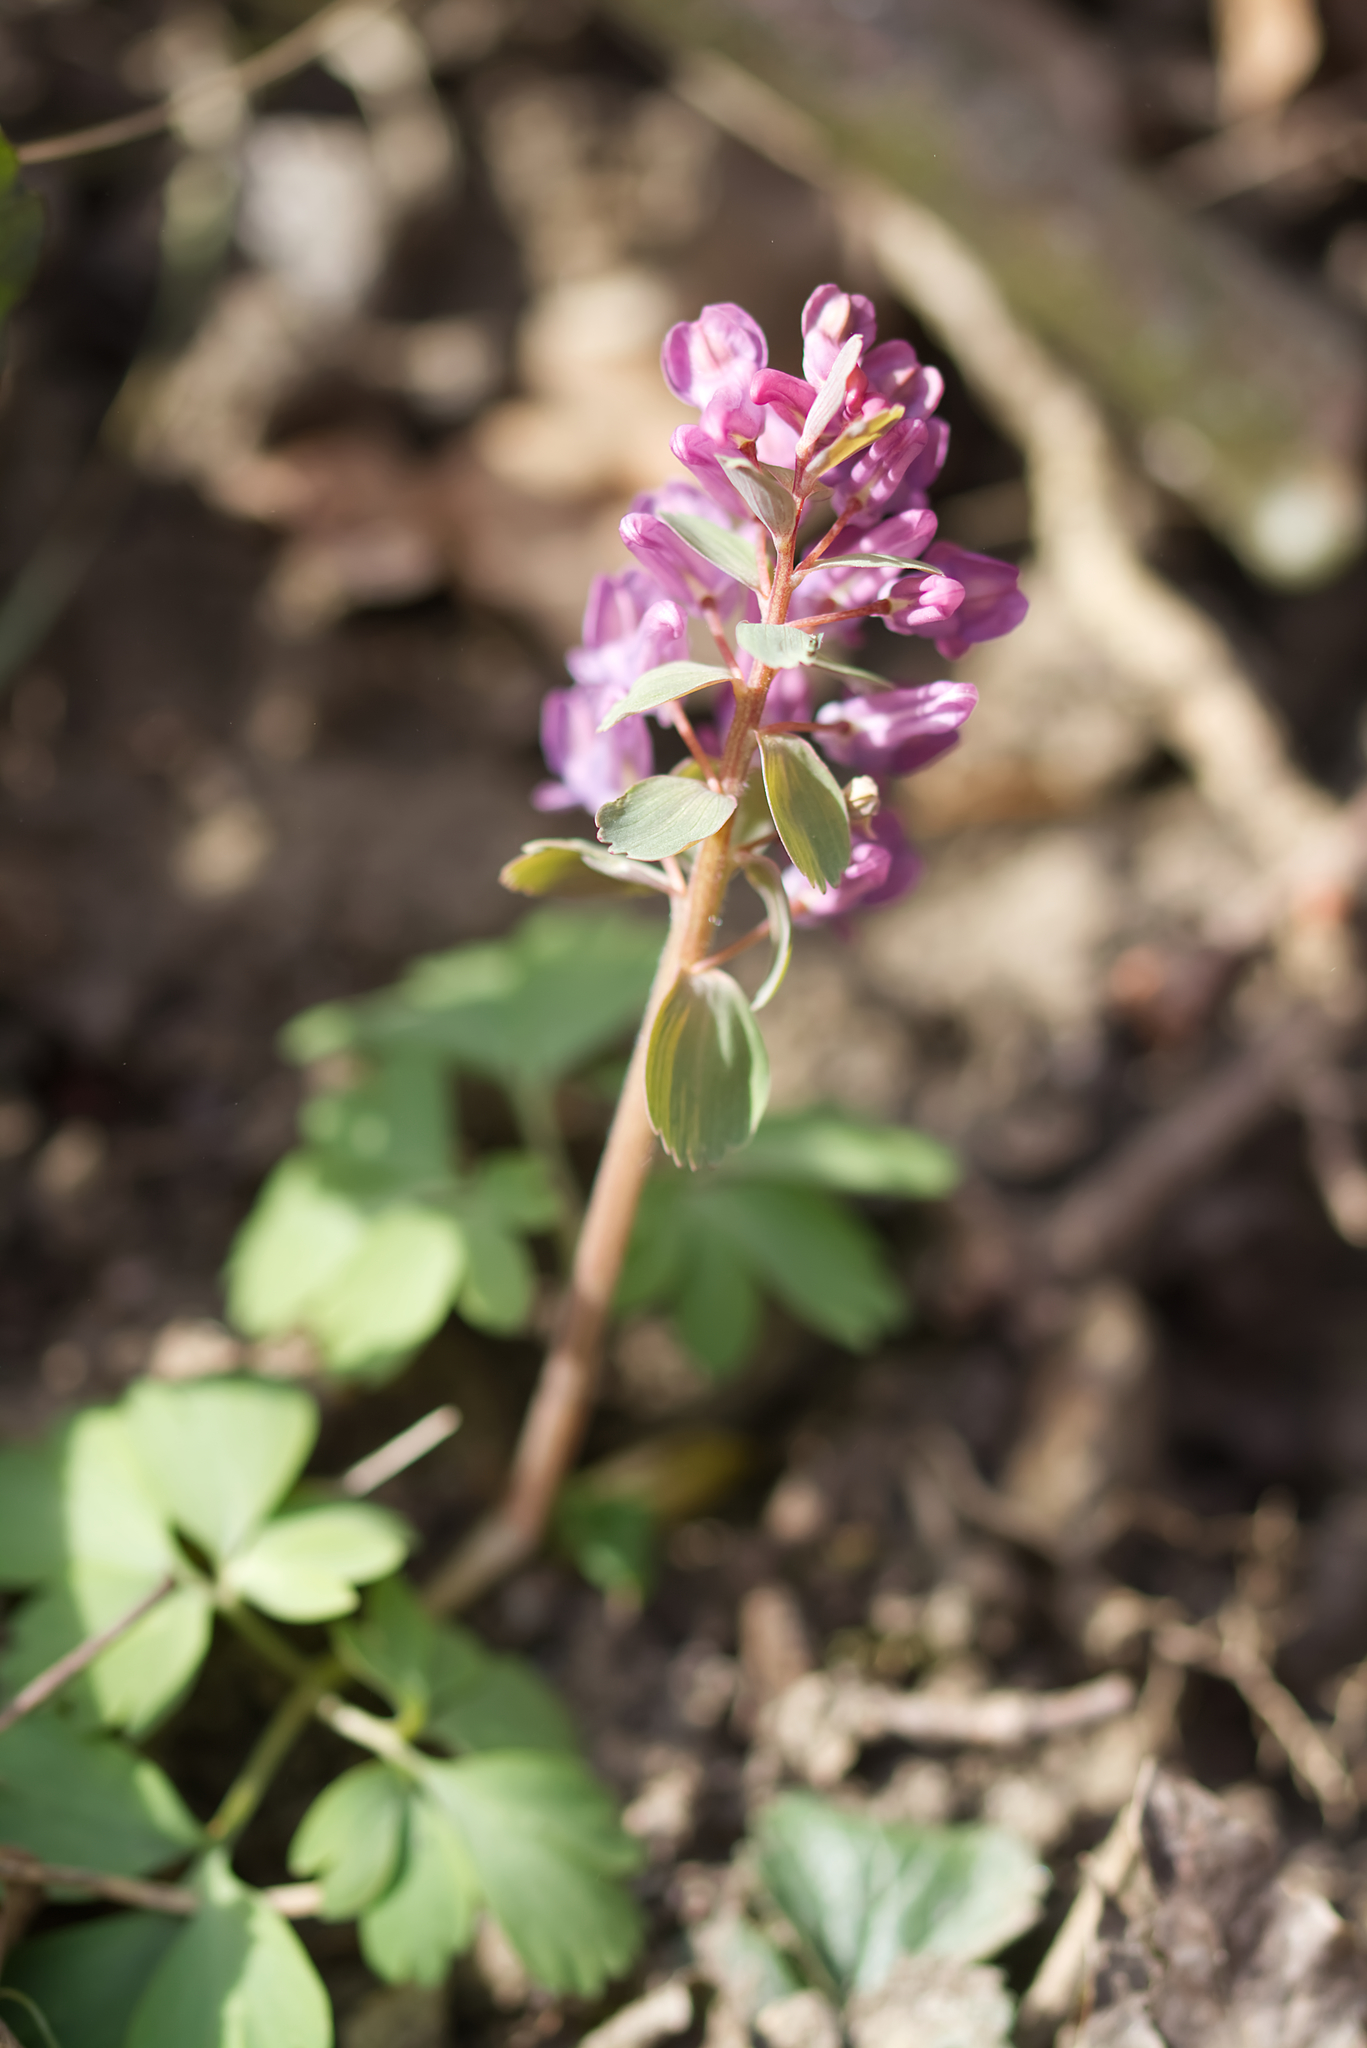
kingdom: Plantae
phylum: Tracheophyta
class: Magnoliopsida
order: Ranunculales
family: Papaveraceae
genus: Corydalis
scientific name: Corydalis solida
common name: Bird-in-a-bush
